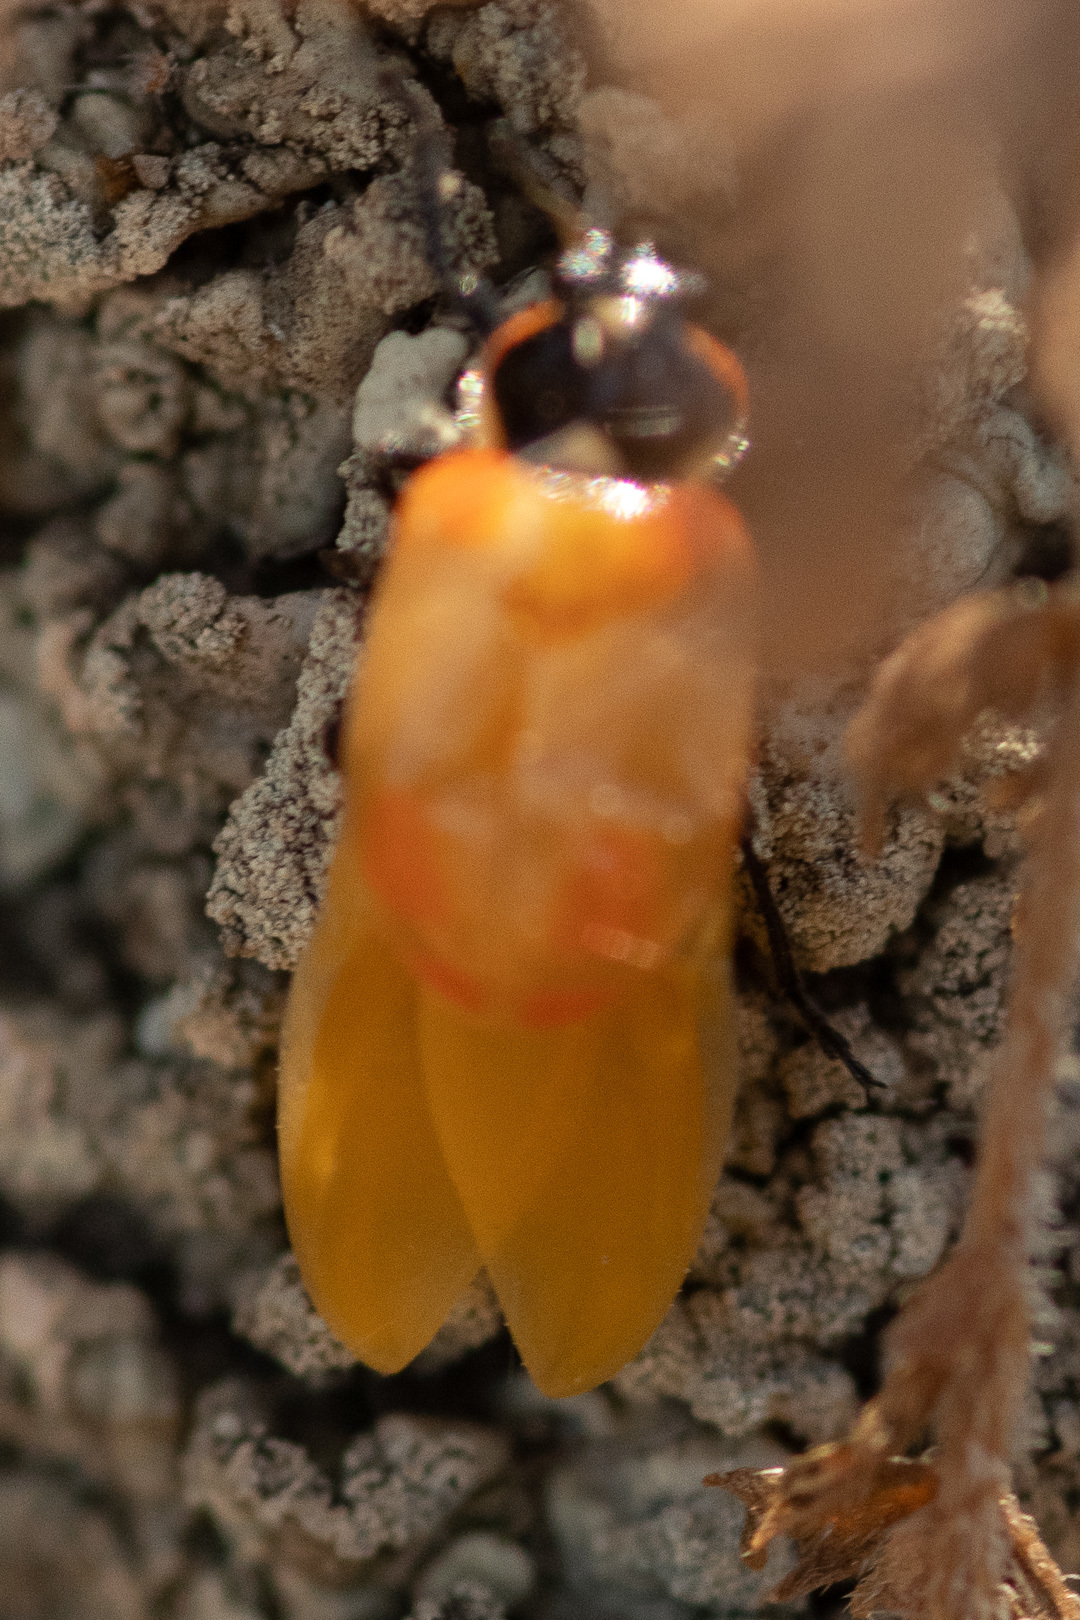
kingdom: Animalia
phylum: Arthropoda
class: Insecta
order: Coleoptera
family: Coccinellidae
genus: Eriopis
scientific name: Eriopis chilensis
